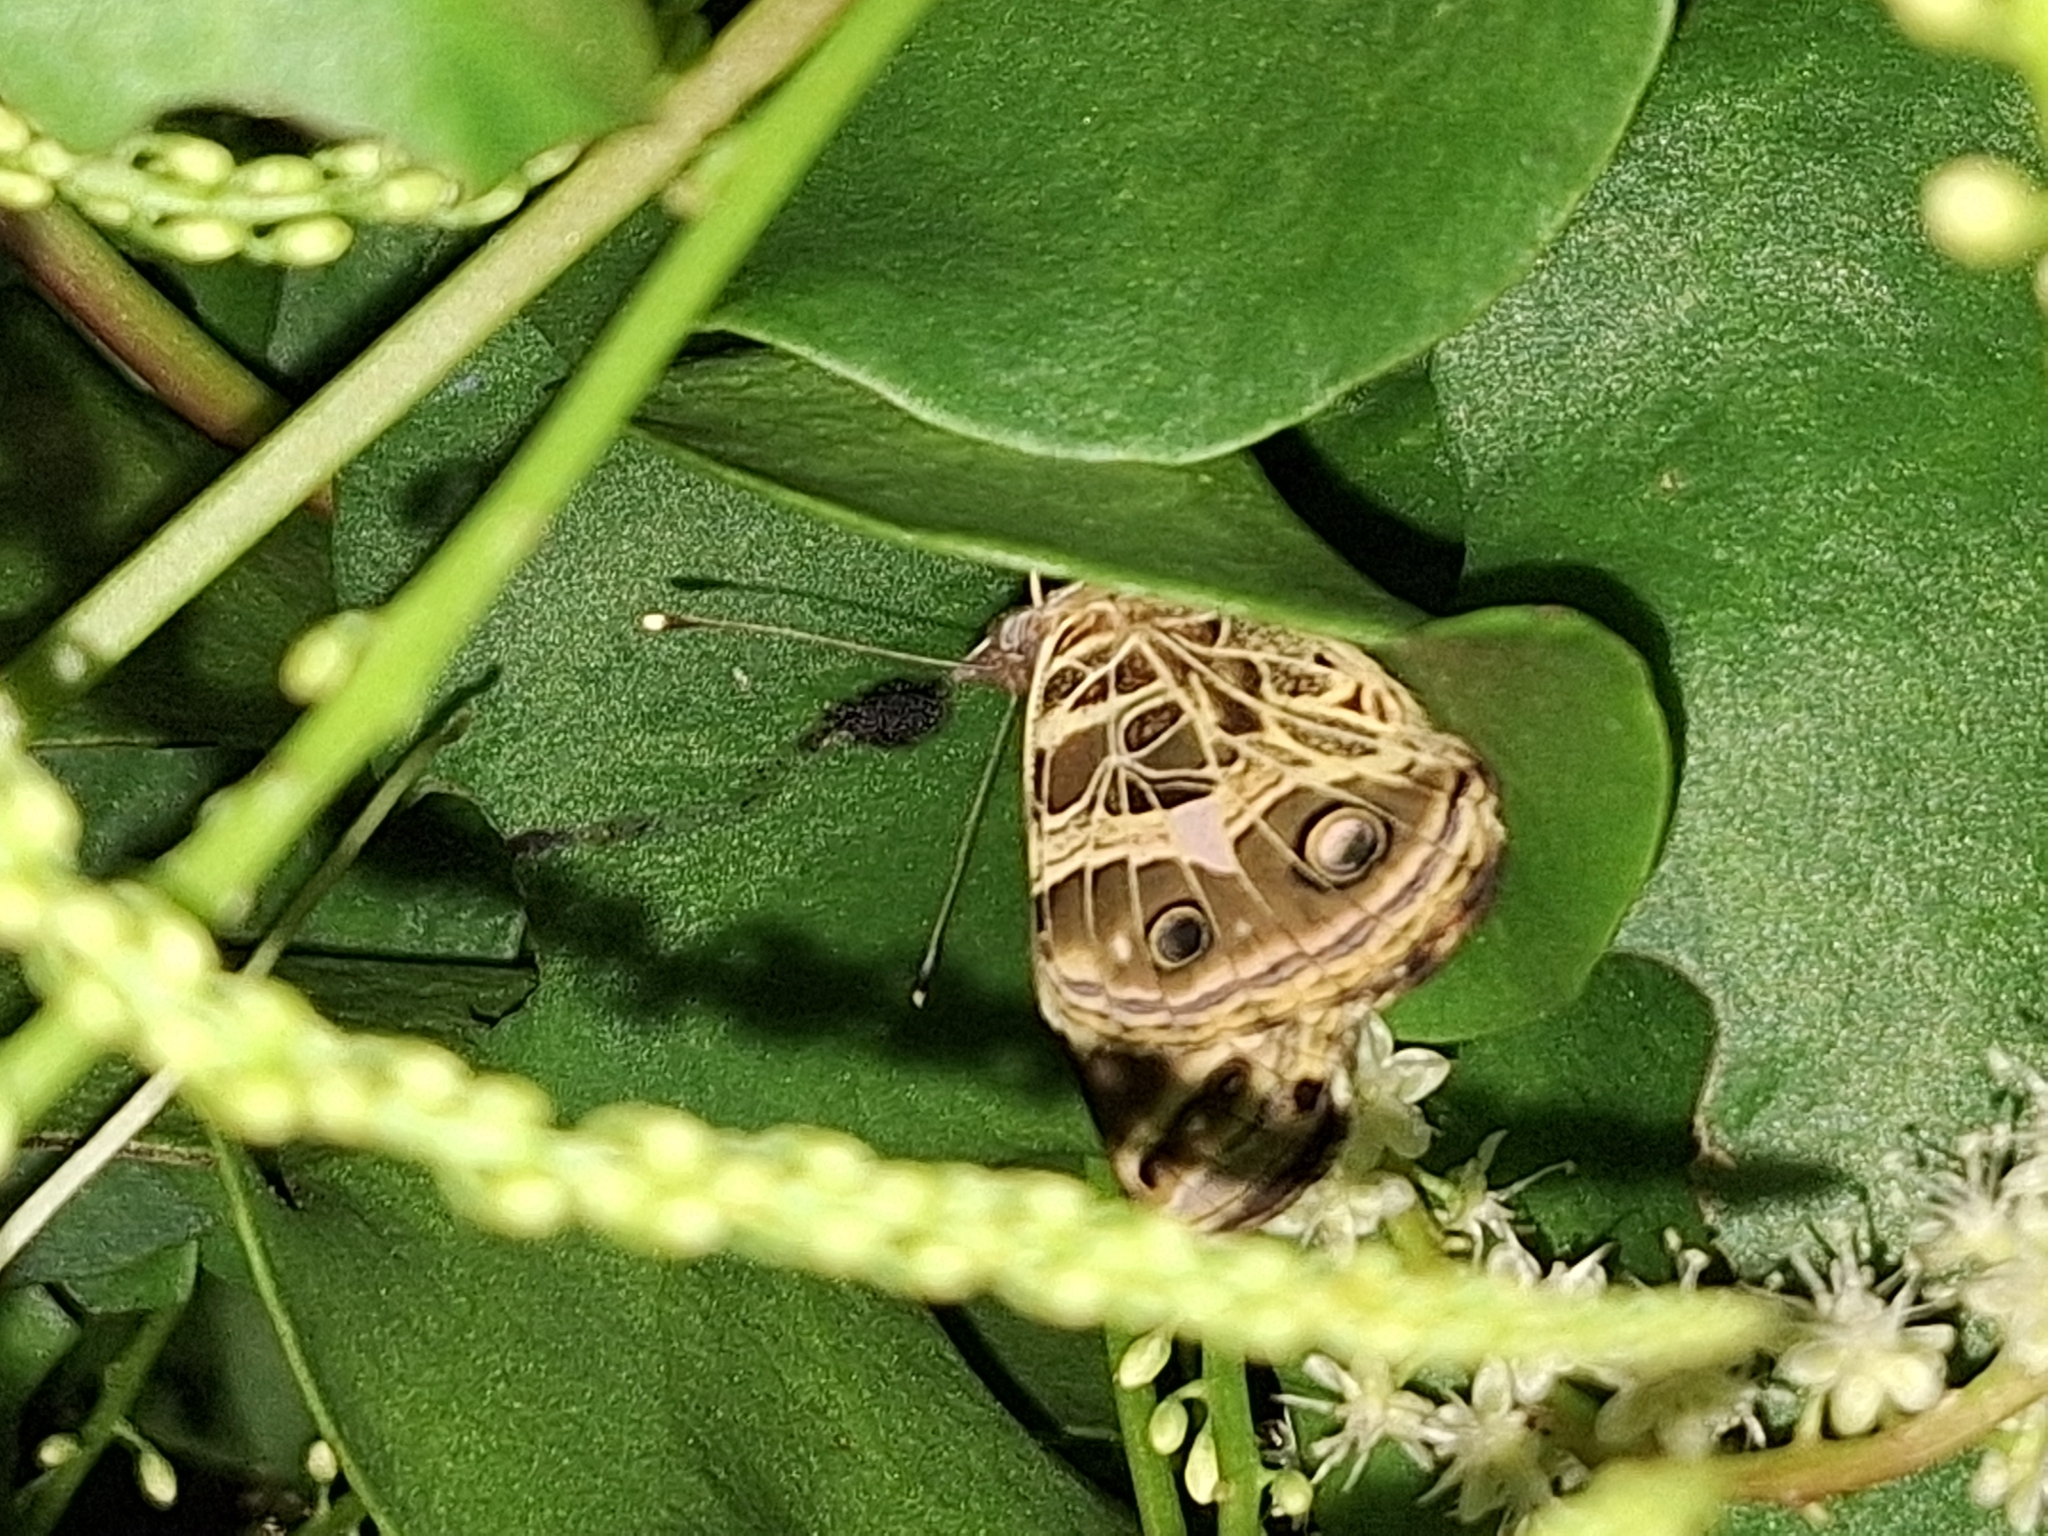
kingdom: Animalia
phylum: Arthropoda
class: Insecta
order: Lepidoptera
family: Nymphalidae
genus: Vanessa
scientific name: Vanessa braziliensis
